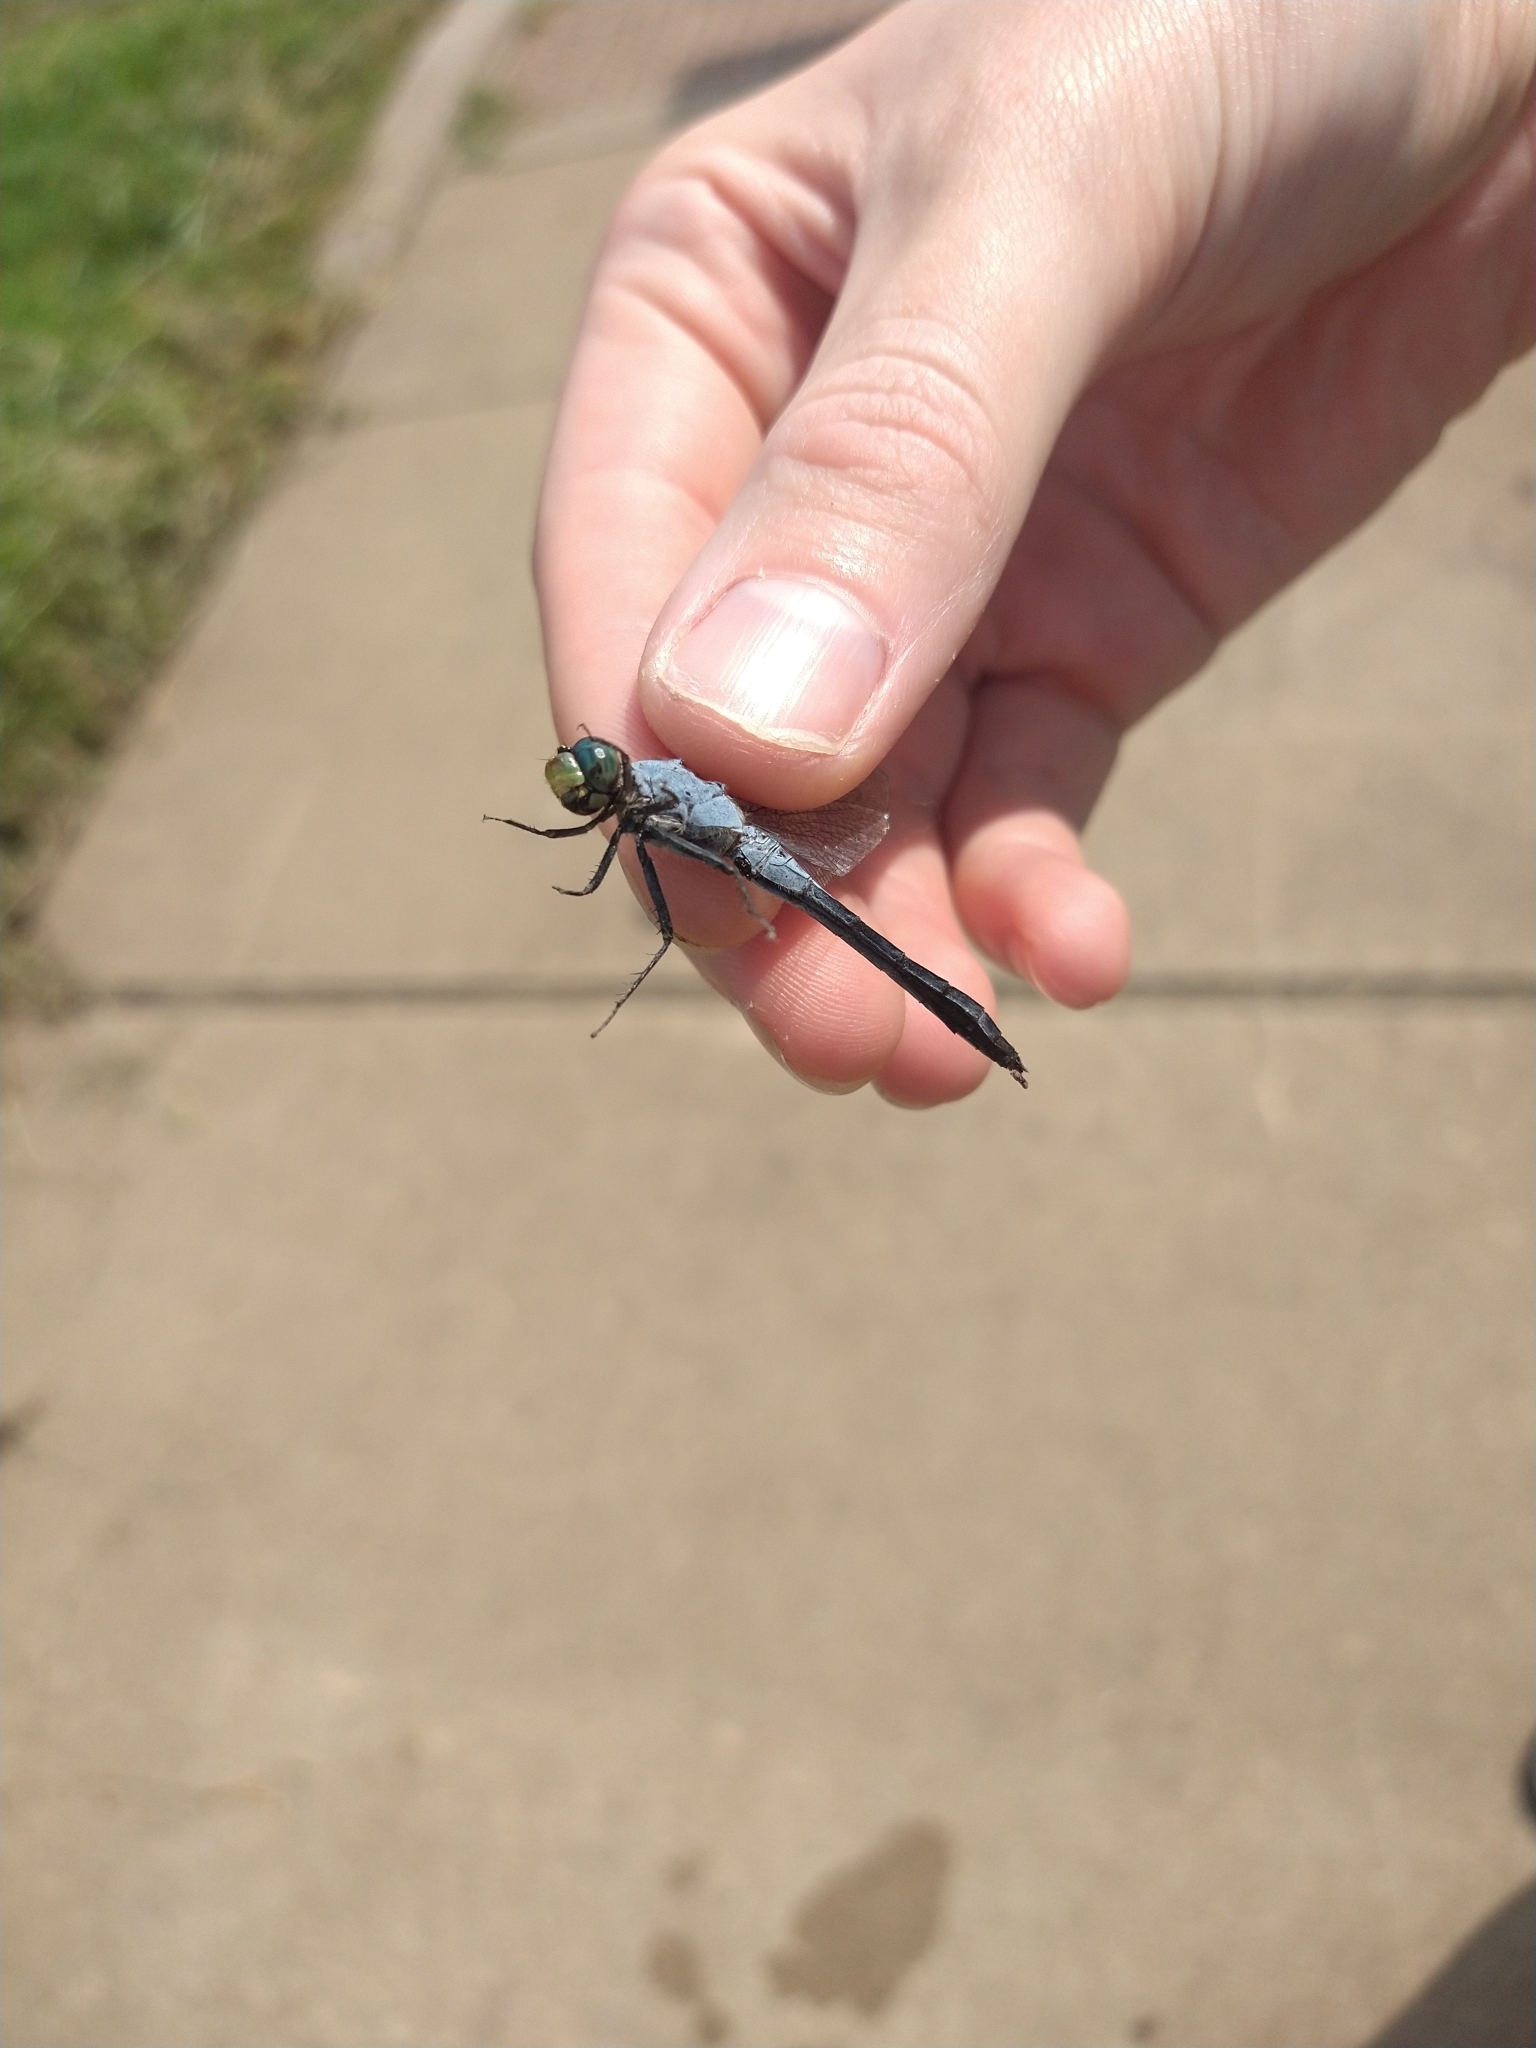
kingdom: Animalia
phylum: Arthropoda
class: Insecta
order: Odonata
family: Libellulidae
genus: Erythemis
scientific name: Erythemis simplicicollis
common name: Eastern pondhawk
